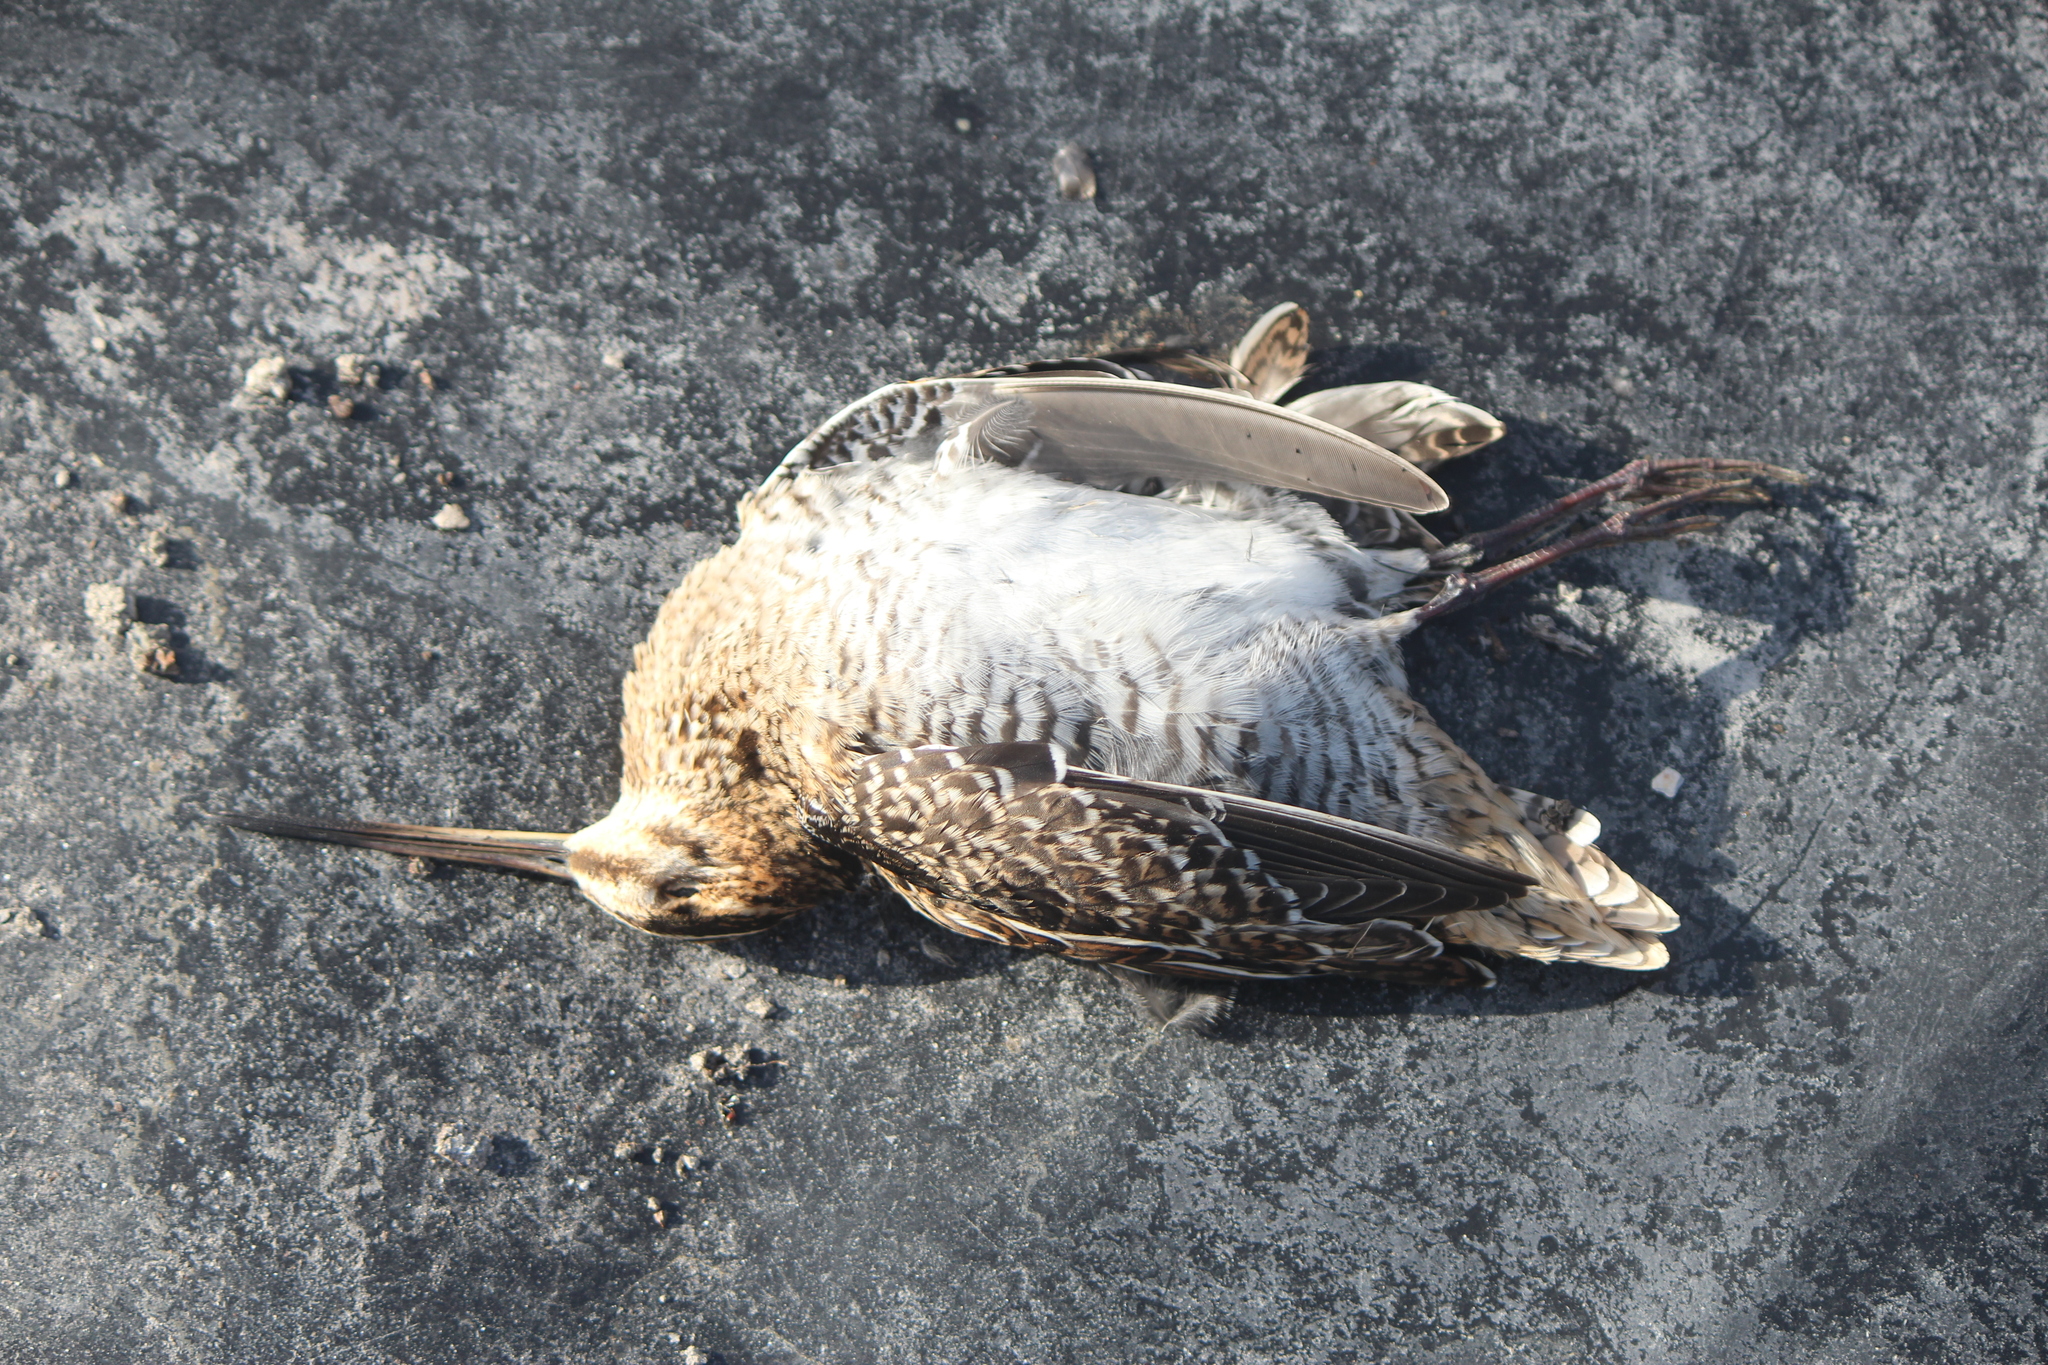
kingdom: Animalia
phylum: Chordata
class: Aves
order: Charadriiformes
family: Scolopacidae
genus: Gallinago
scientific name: Gallinago delicata
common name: Wilson's snipe
